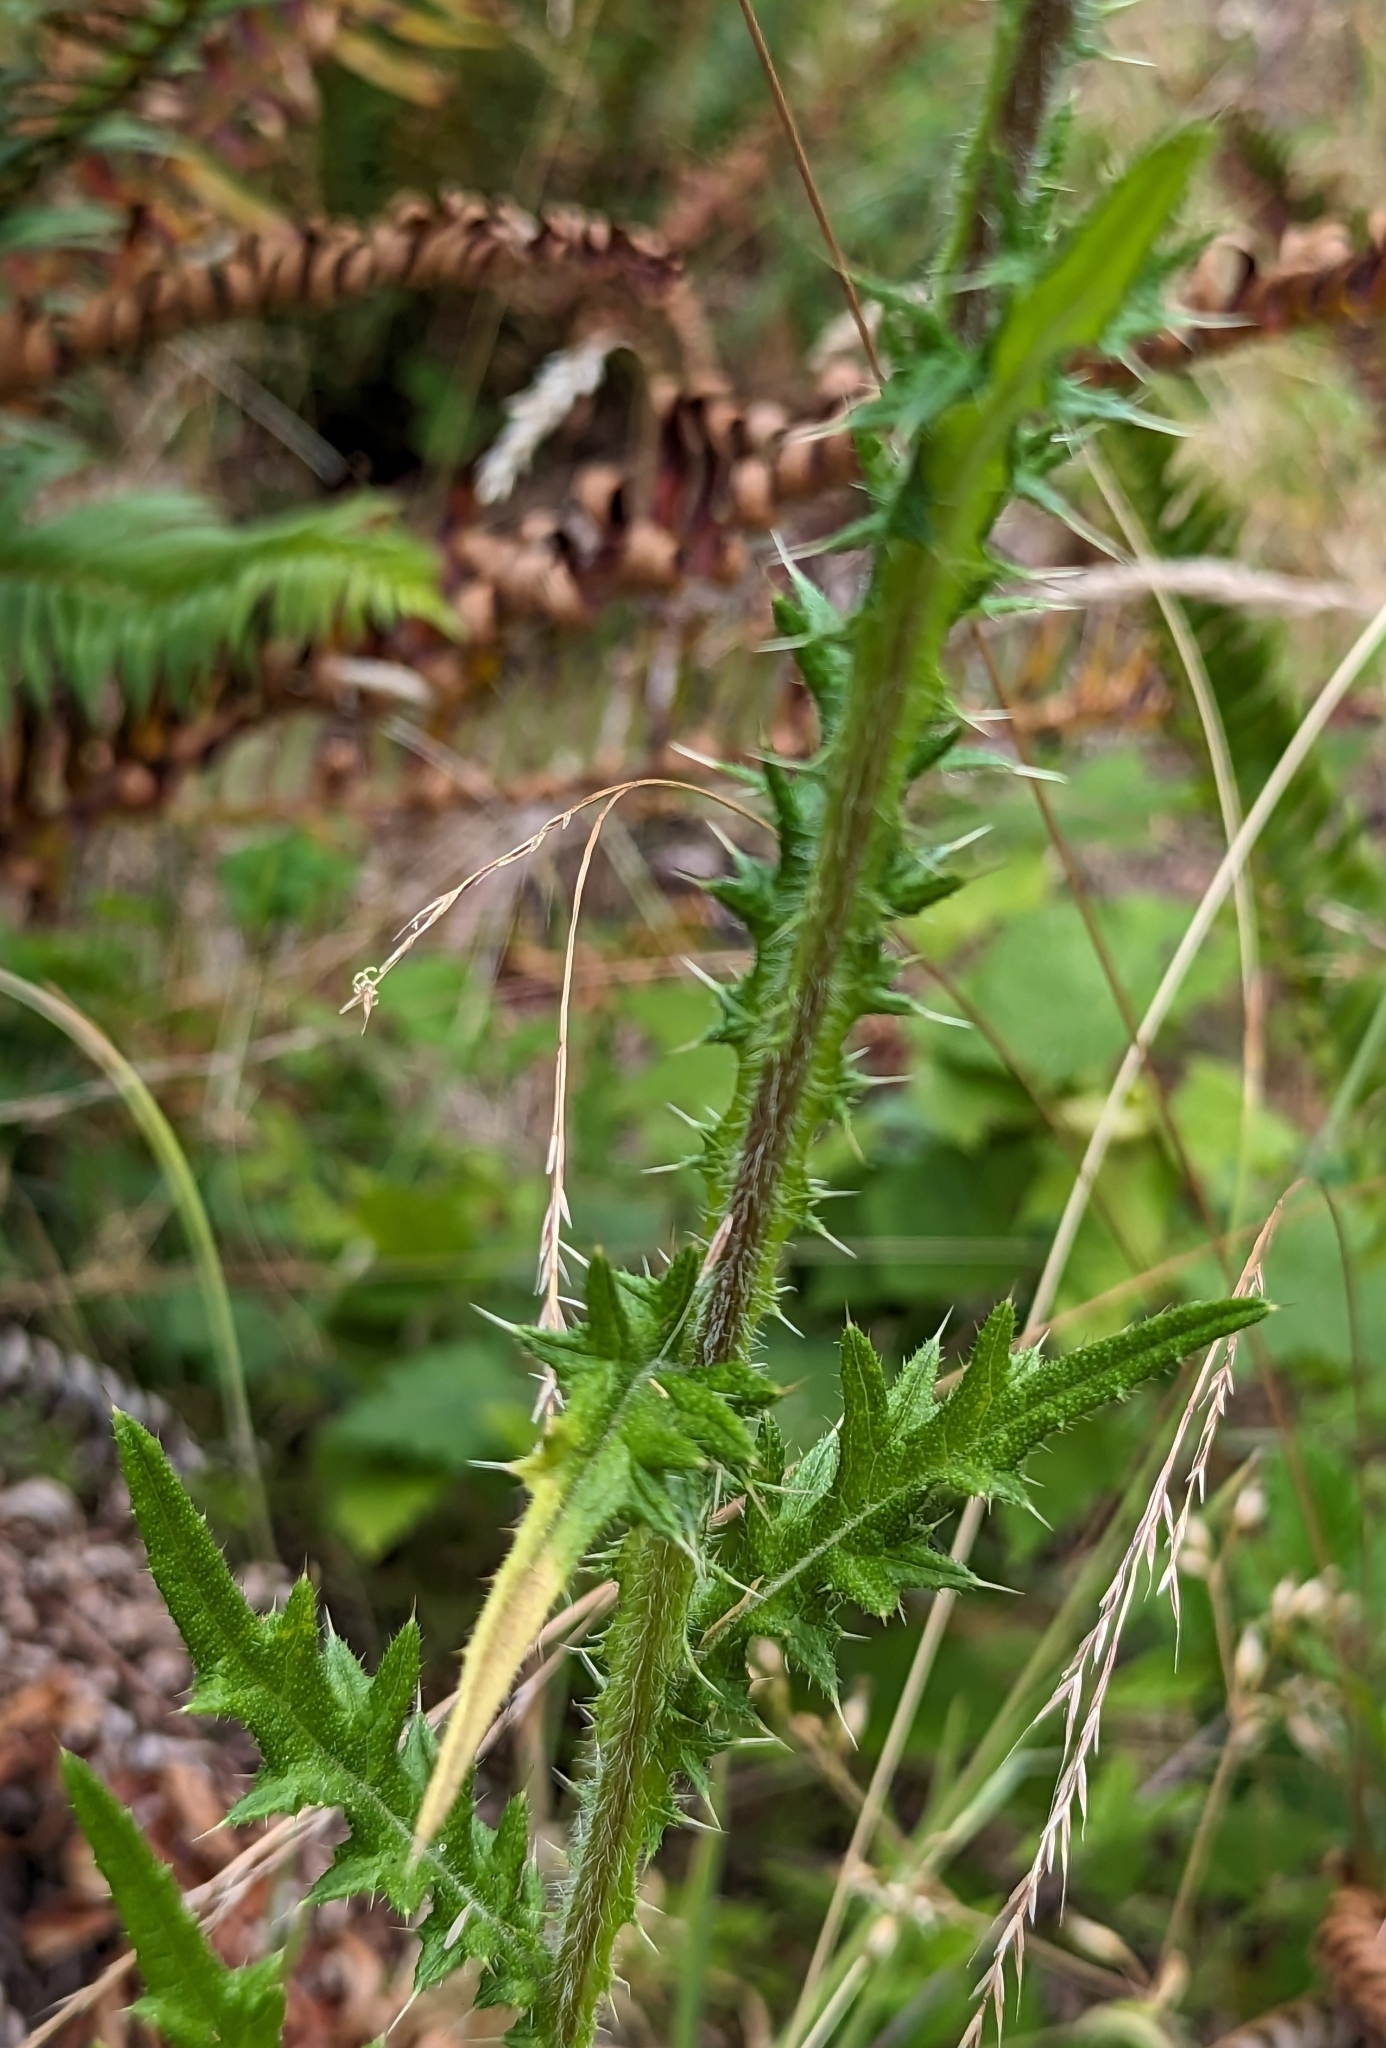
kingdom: Plantae
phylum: Tracheophyta
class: Magnoliopsida
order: Asterales
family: Asteraceae
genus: Cirsium
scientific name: Cirsium vulgare
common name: Bull thistle
